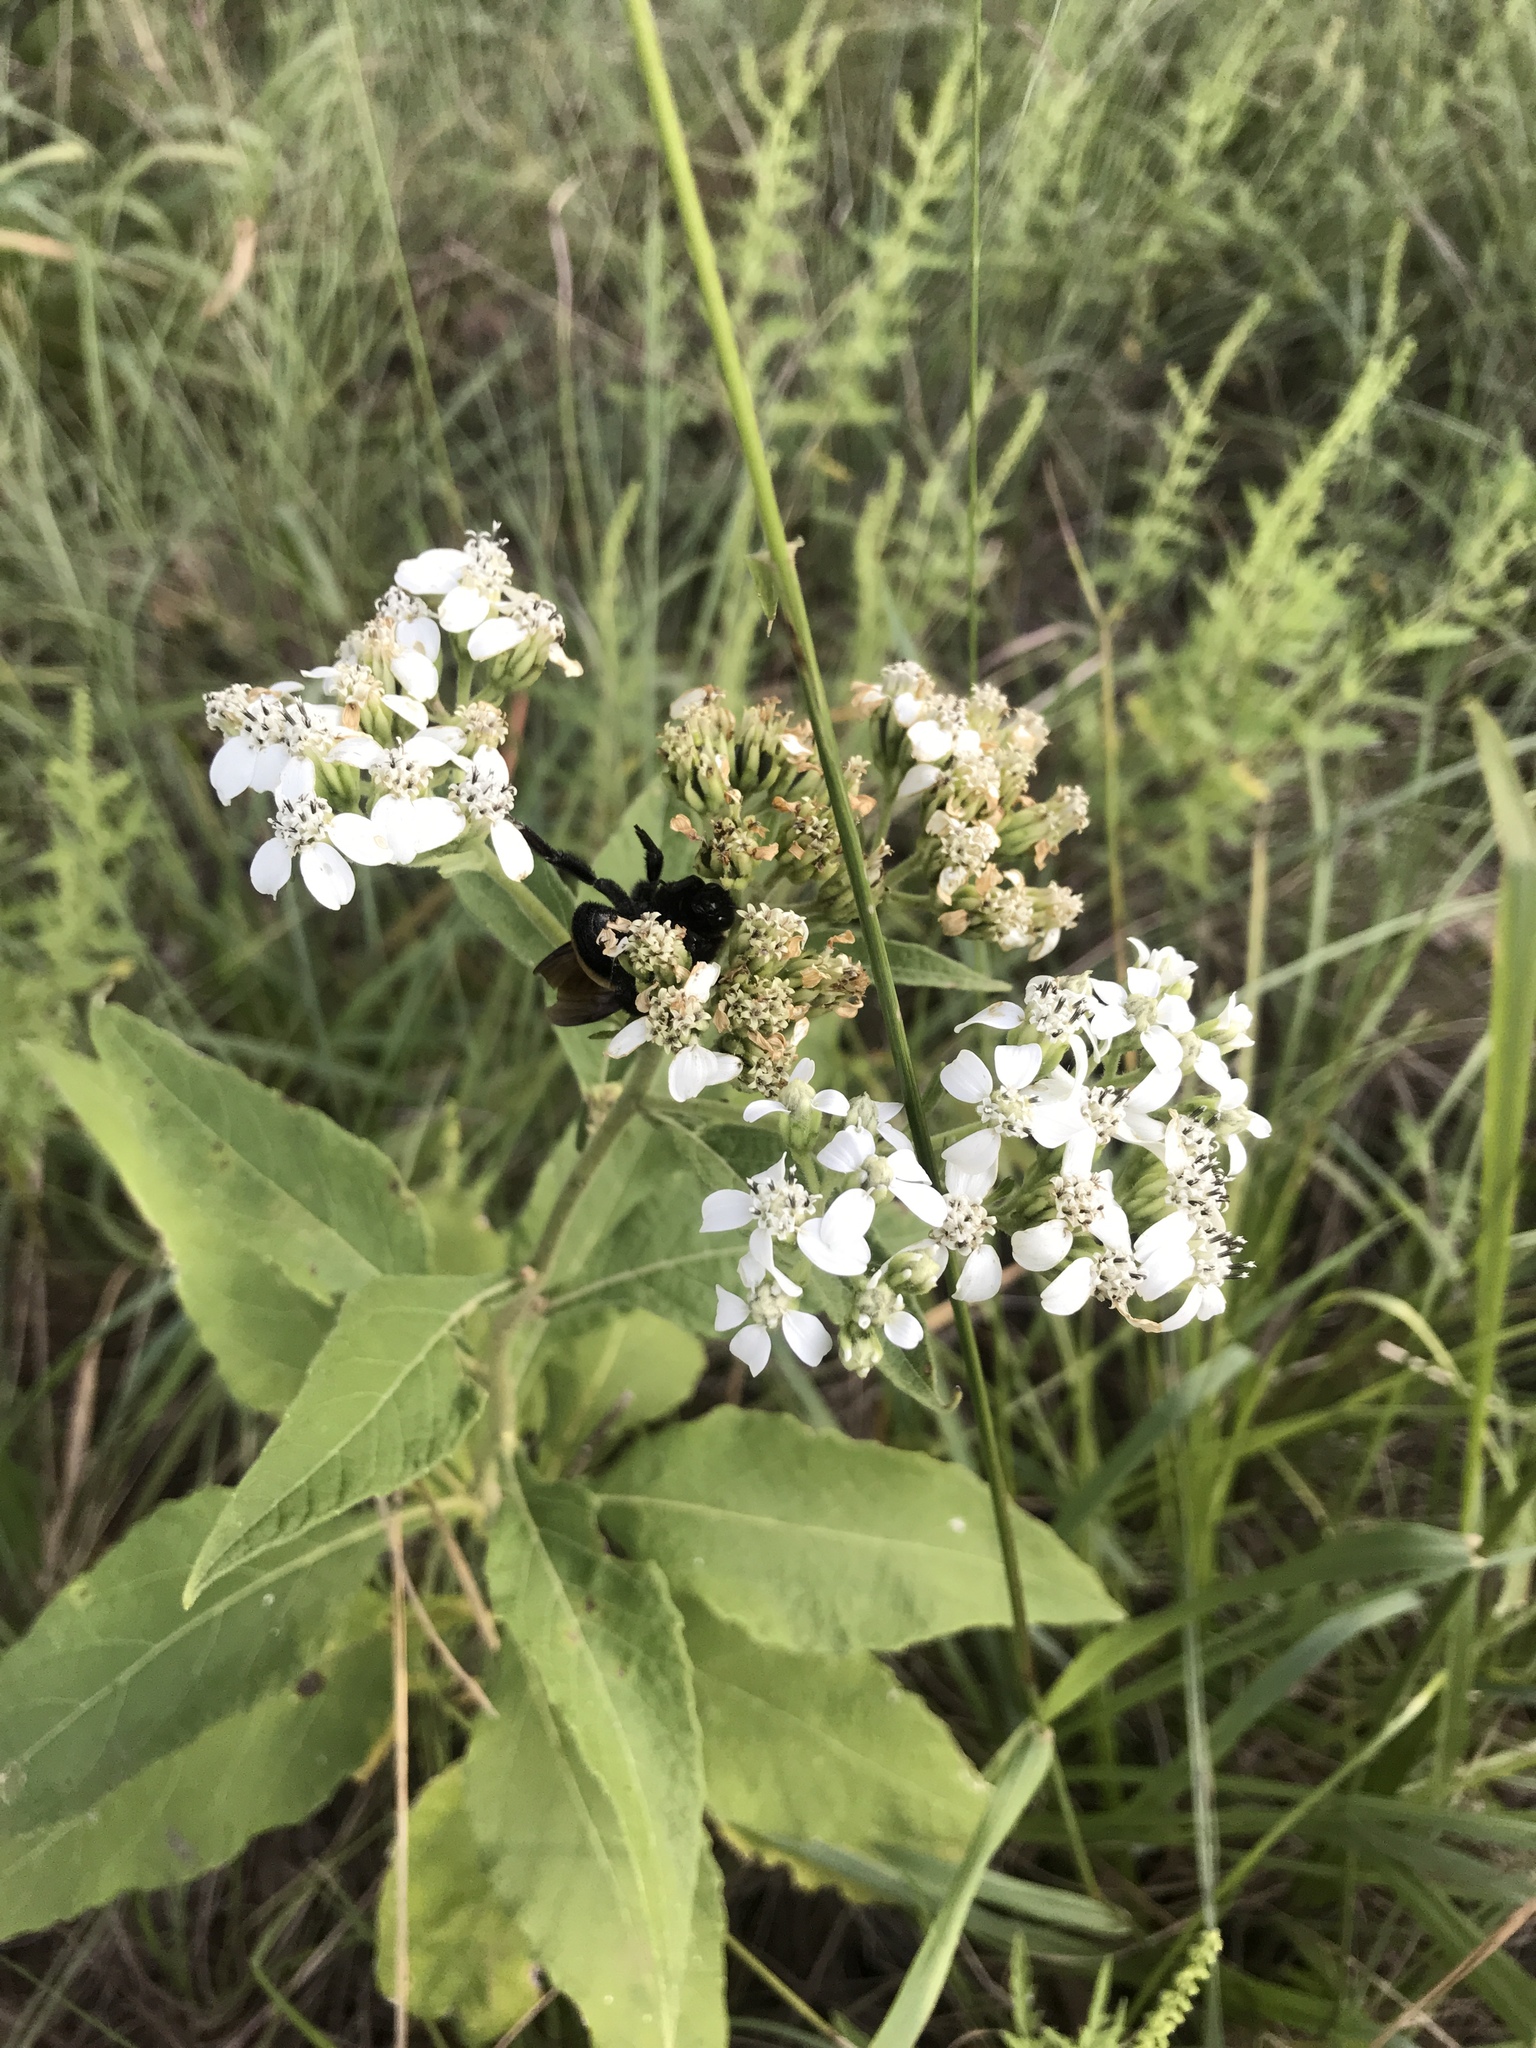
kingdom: Plantae
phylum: Tracheophyta
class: Magnoliopsida
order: Asterales
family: Asteraceae
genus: Verbesina
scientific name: Verbesina virginica
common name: Frostweed
